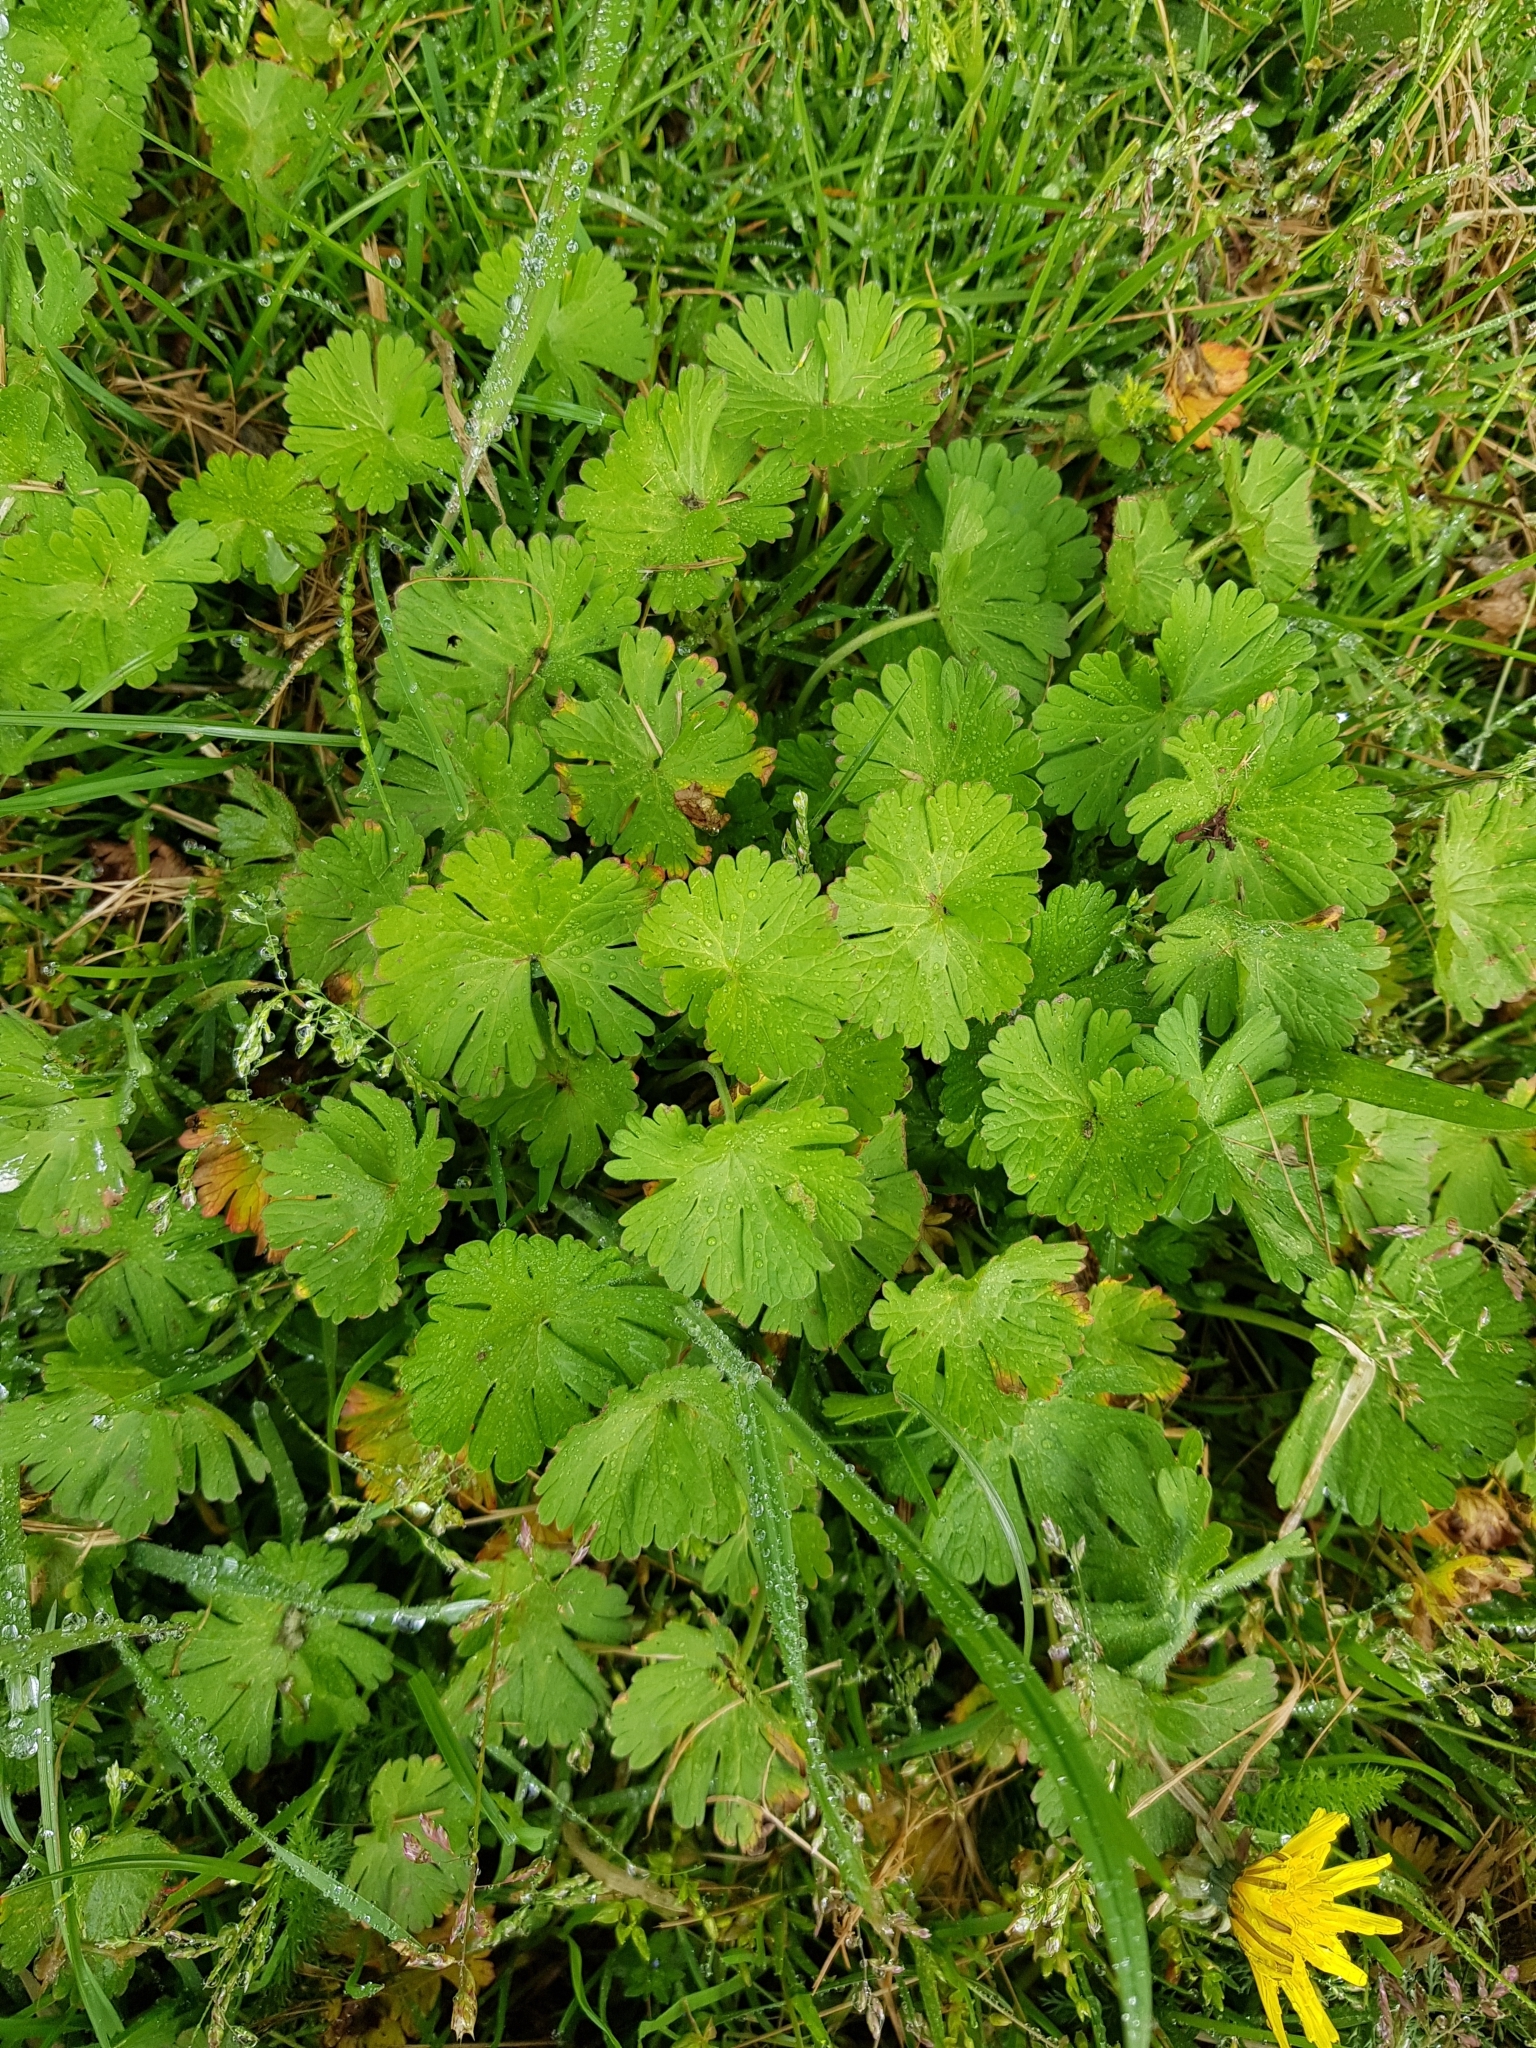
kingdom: Plantae
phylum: Tracheophyta
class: Magnoliopsida
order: Geraniales
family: Geraniaceae
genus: Geranium
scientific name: Geranium rotundifolium
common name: Round-leaved crane's-bill
